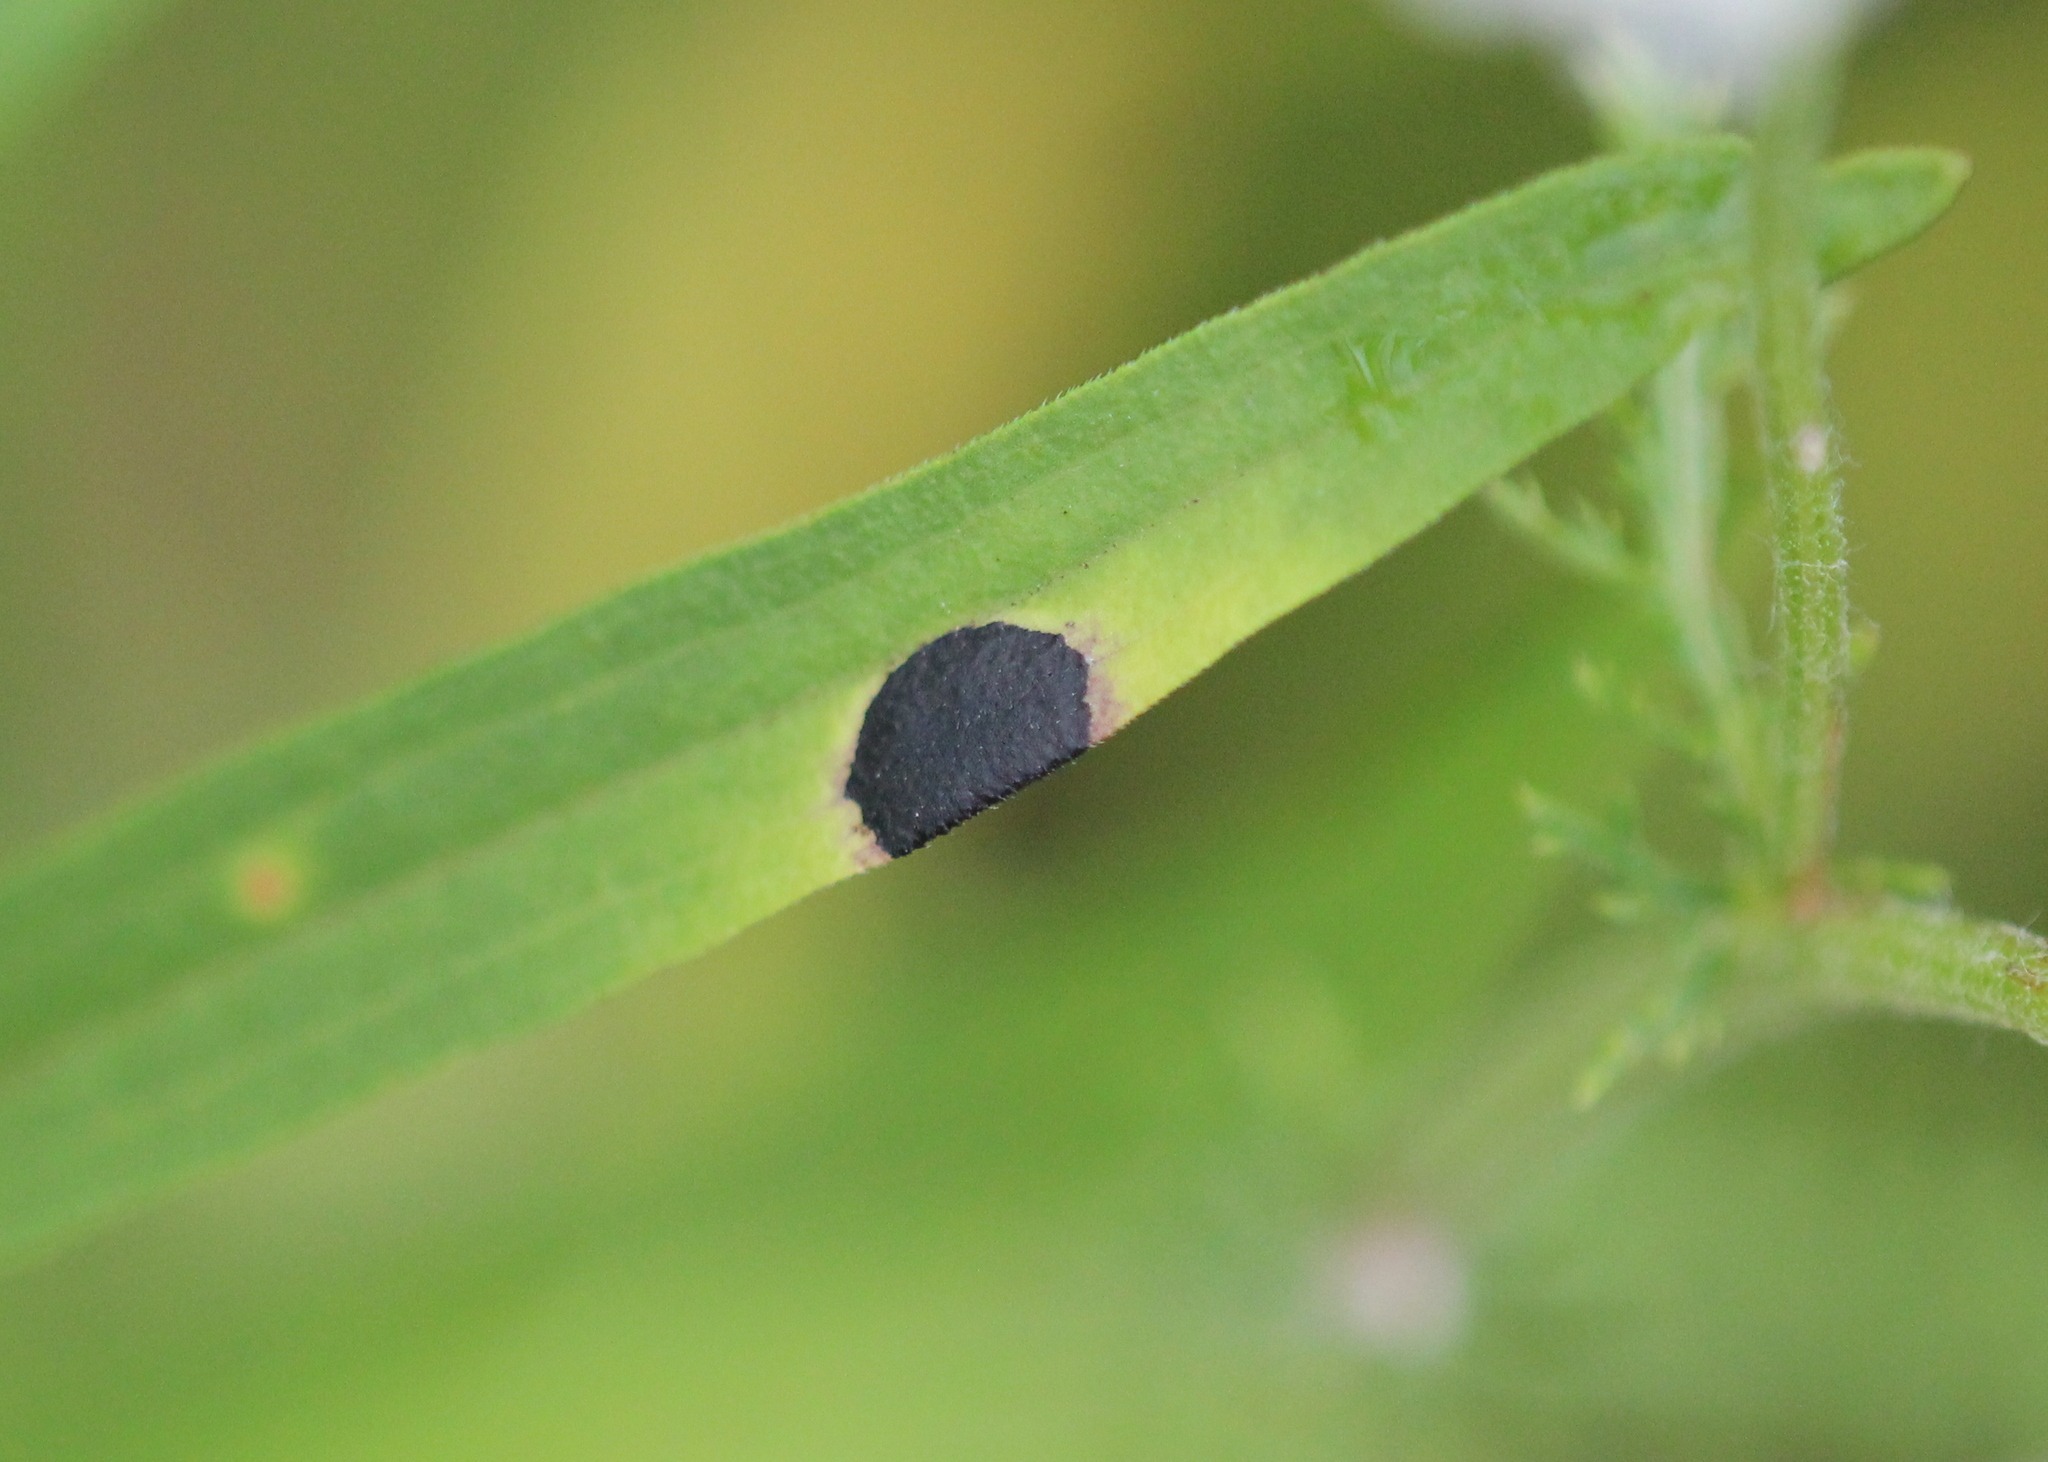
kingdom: Animalia
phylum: Arthropoda
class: Insecta
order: Diptera
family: Cecidomyiidae
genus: Asteromyia
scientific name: Asteromyia euthamiae
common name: Euthamia leaf gall midge
